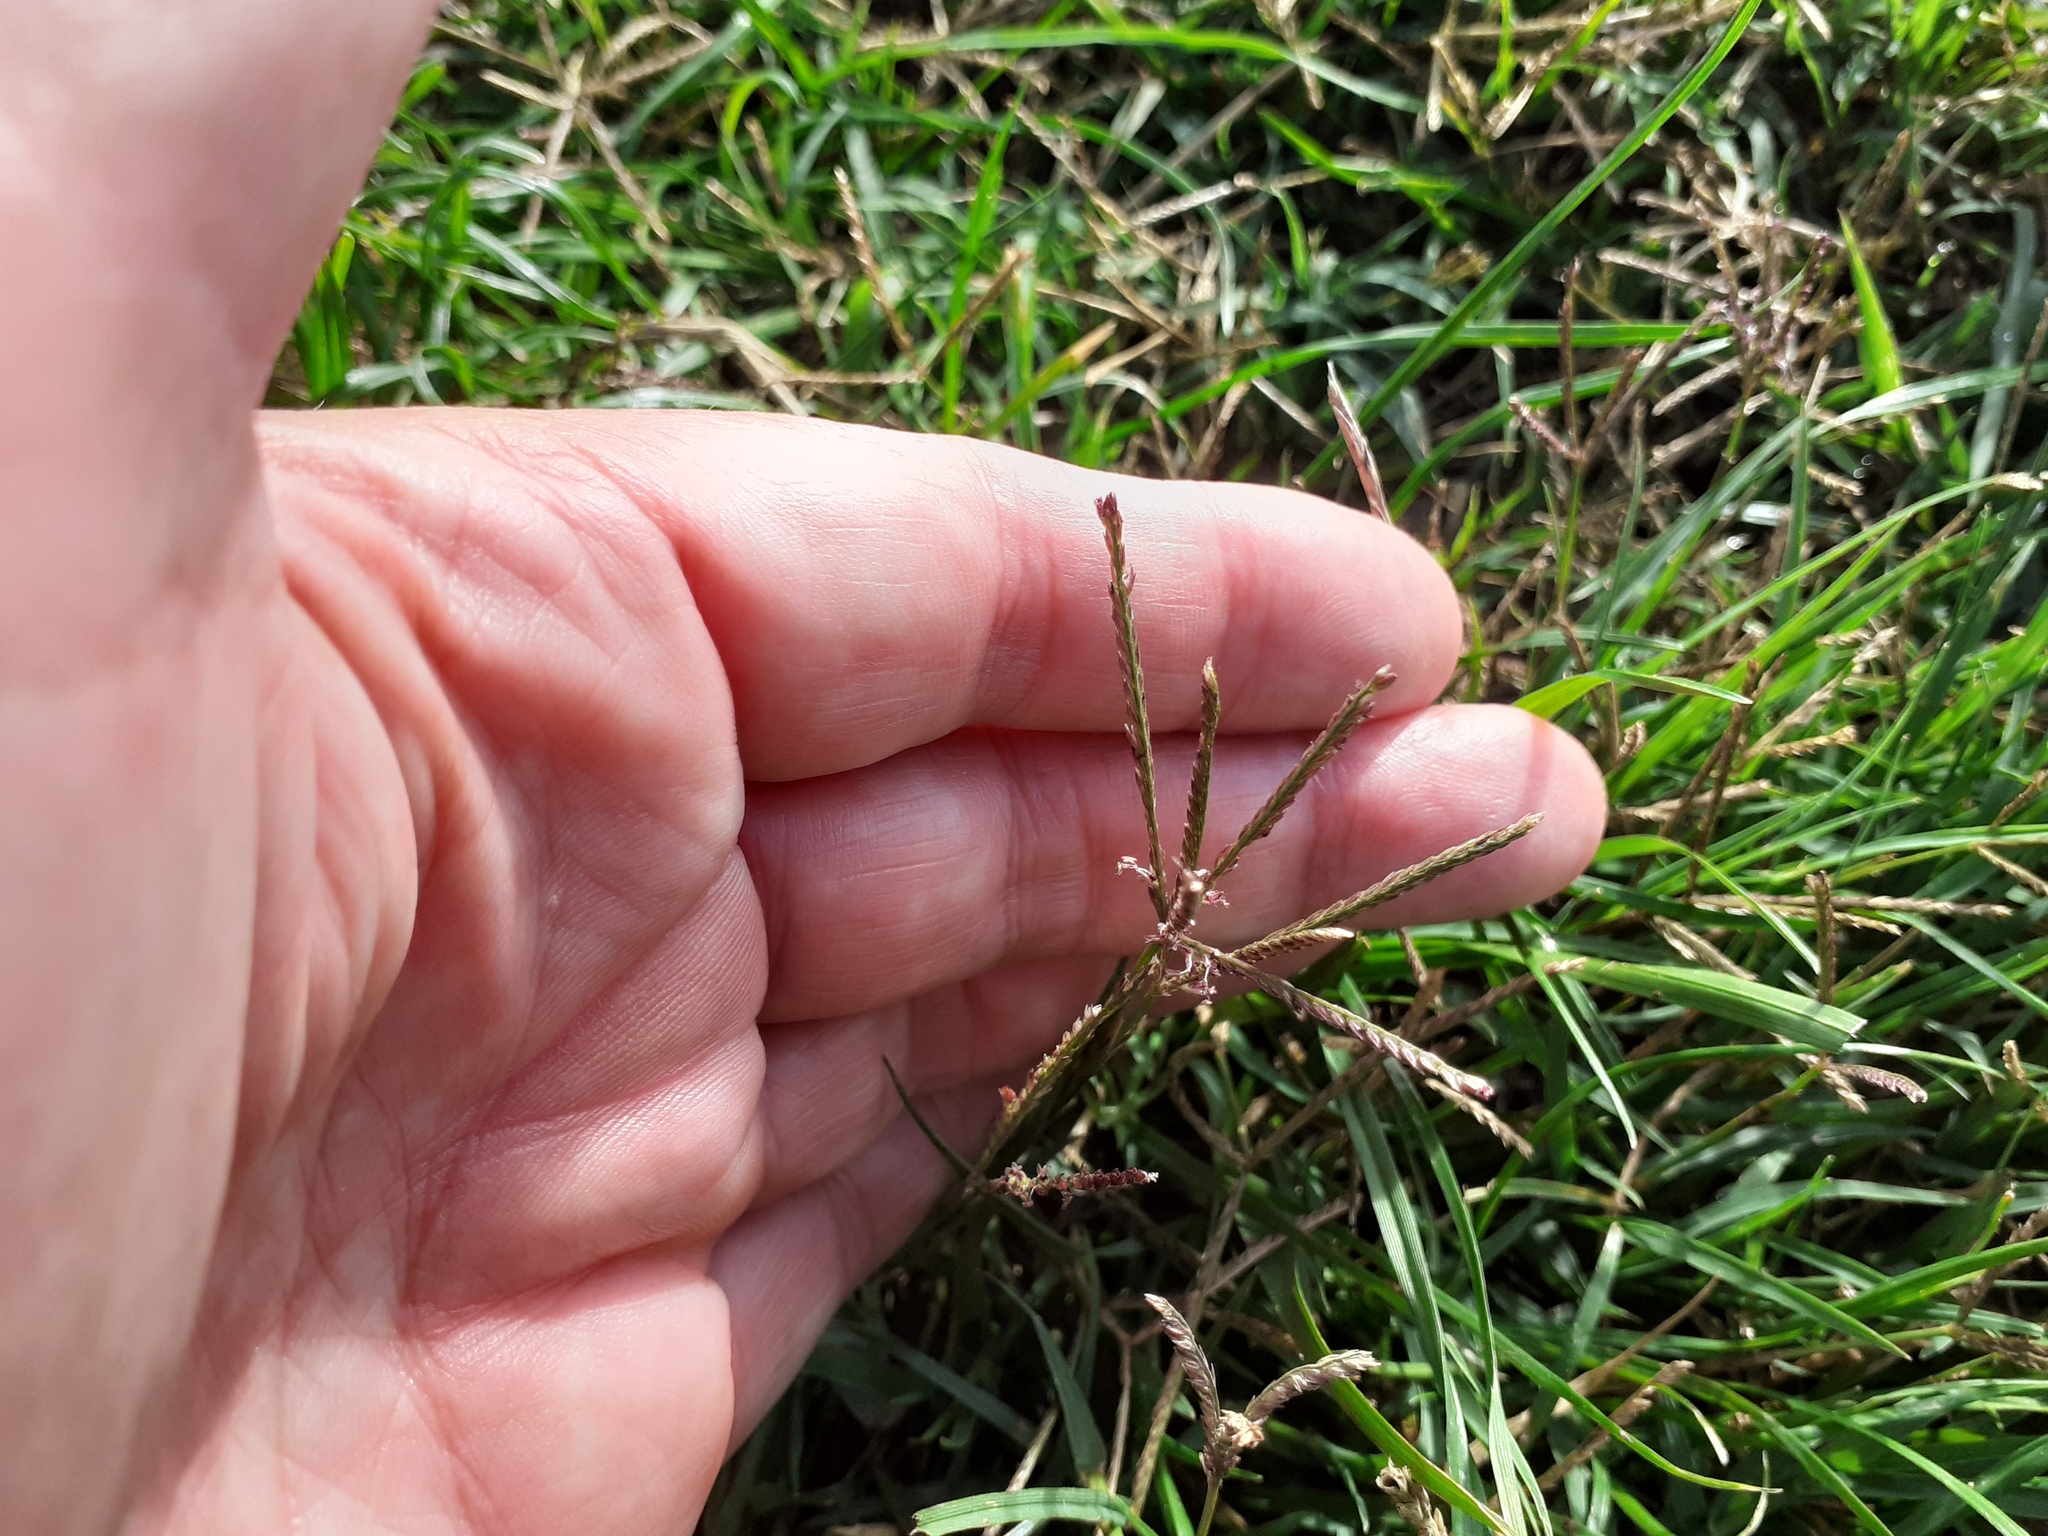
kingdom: Plantae
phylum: Tracheophyta
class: Liliopsida
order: Poales
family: Poaceae
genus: Cynodon
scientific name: Cynodon dactylon
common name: Bermuda grass
